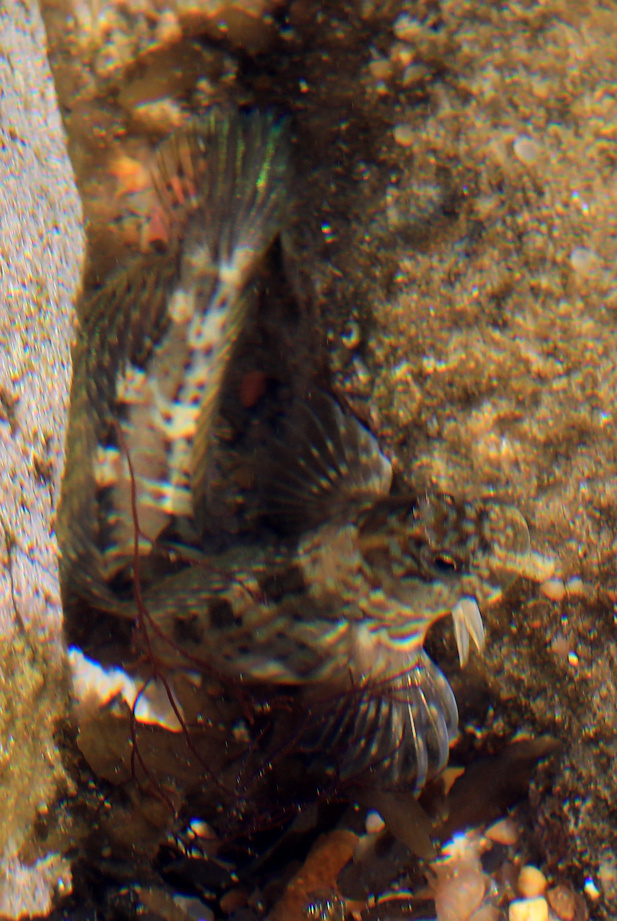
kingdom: Animalia
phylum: Chordata
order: Perciformes
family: Blenniidae
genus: Istiblennius
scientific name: Istiblennius dussumieri
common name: Dussumier's rockskipper
